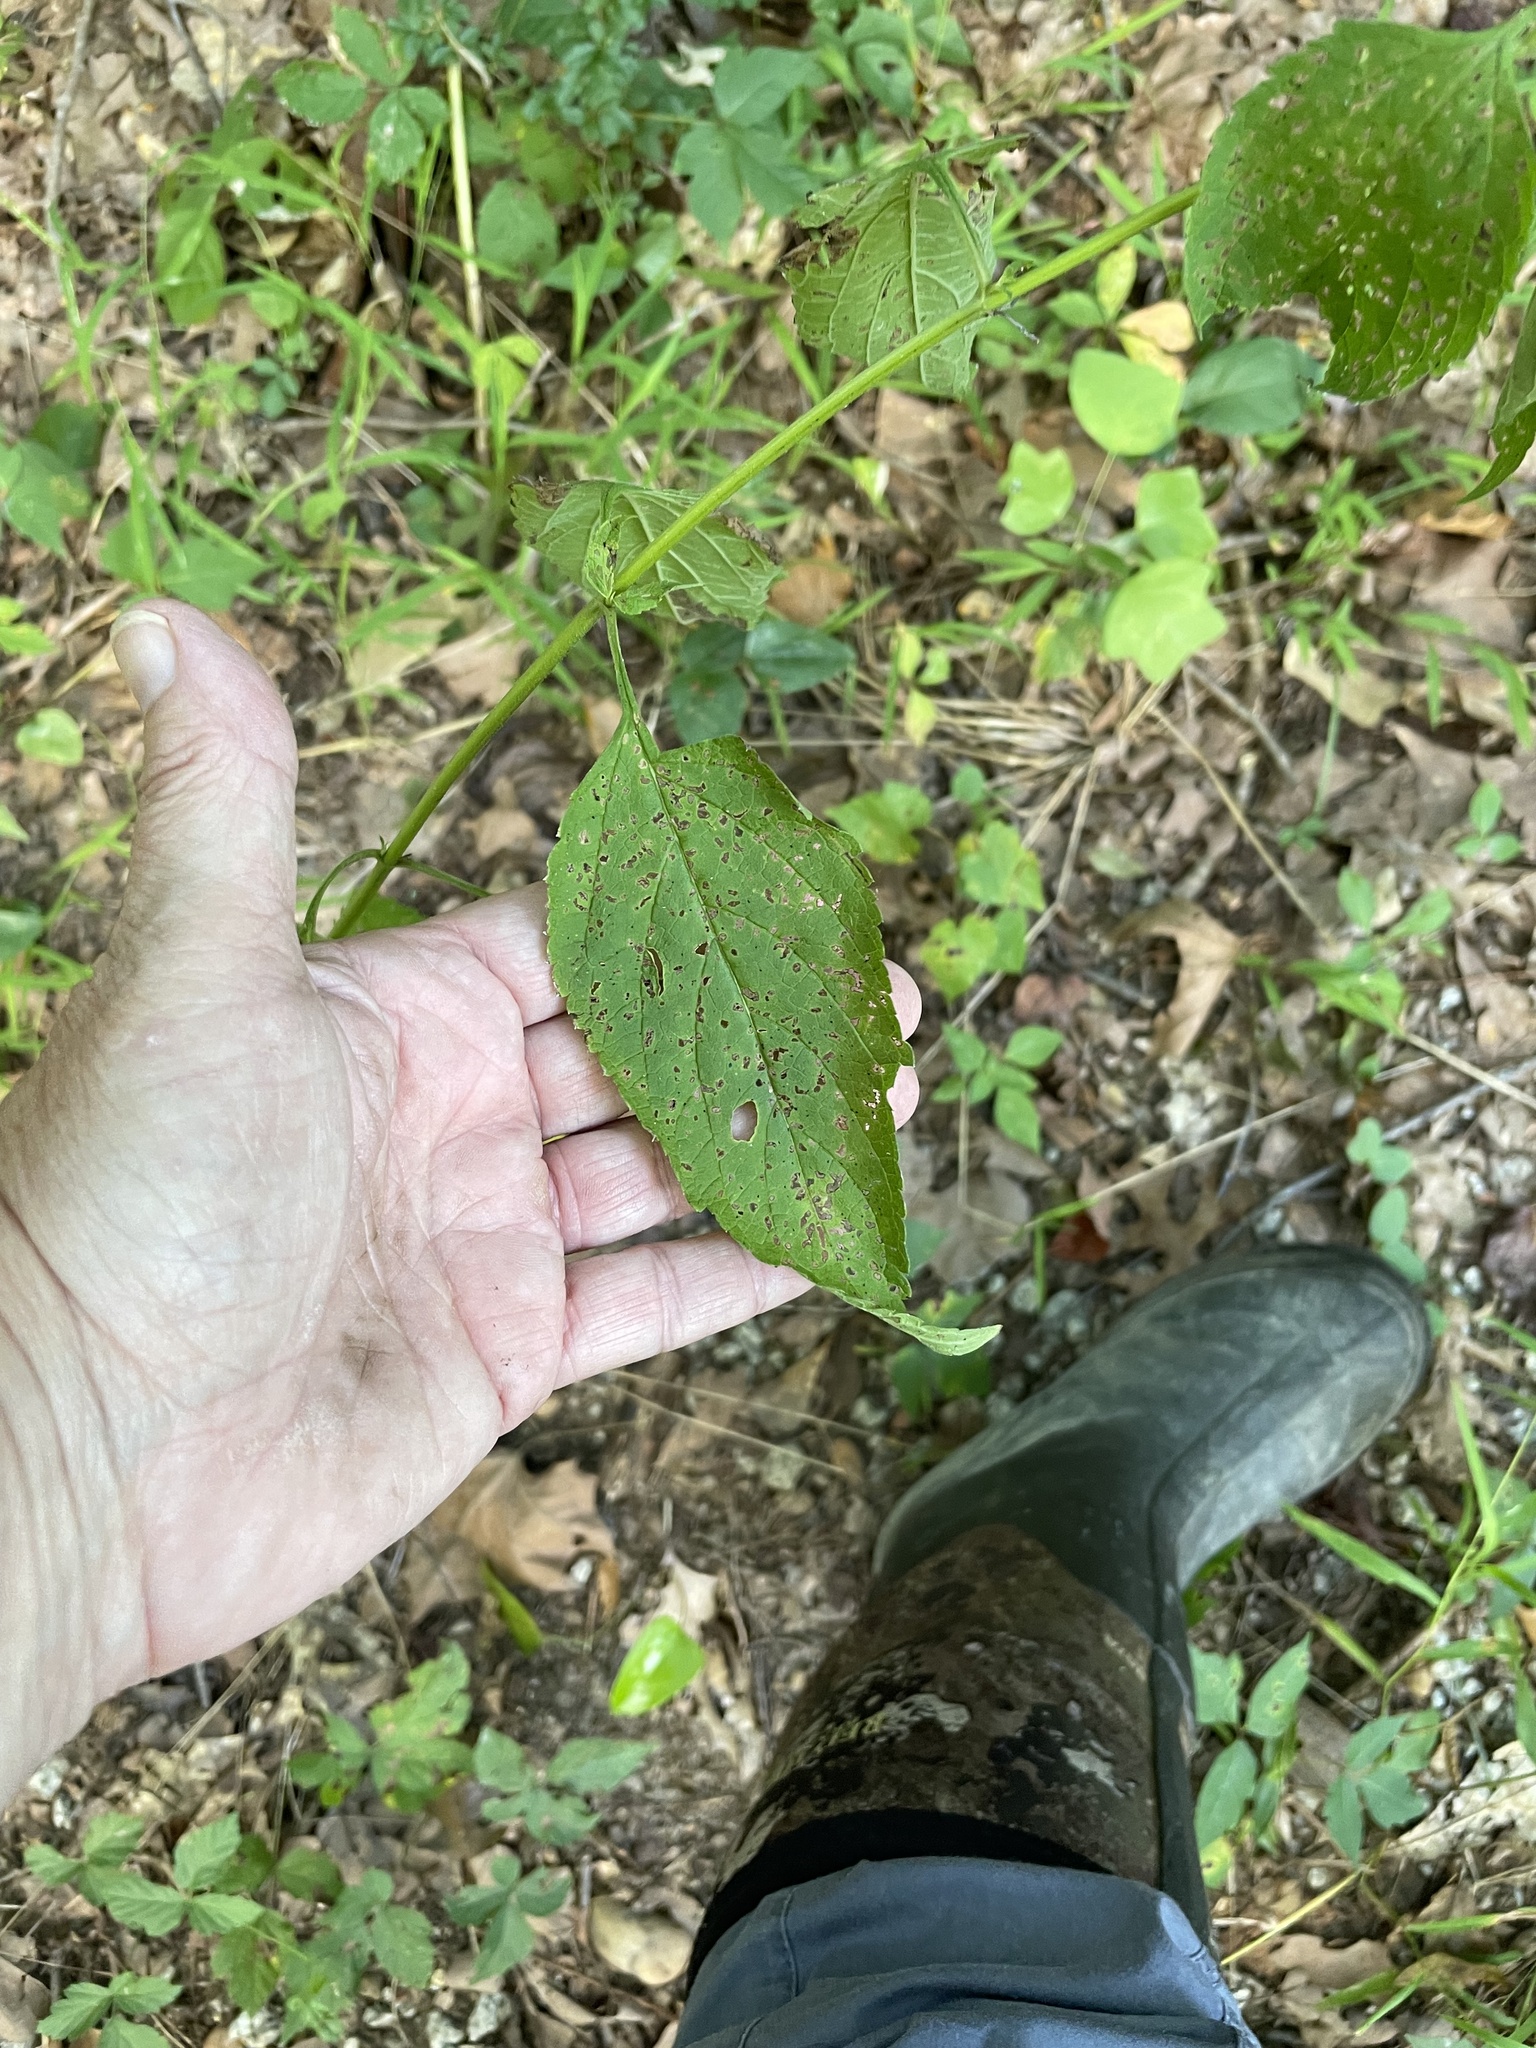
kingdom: Plantae
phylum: Tracheophyta
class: Magnoliopsida
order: Lamiales
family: Verbenaceae
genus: Verbena
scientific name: Verbena urticifolia
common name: Nettle-leaved vervain
